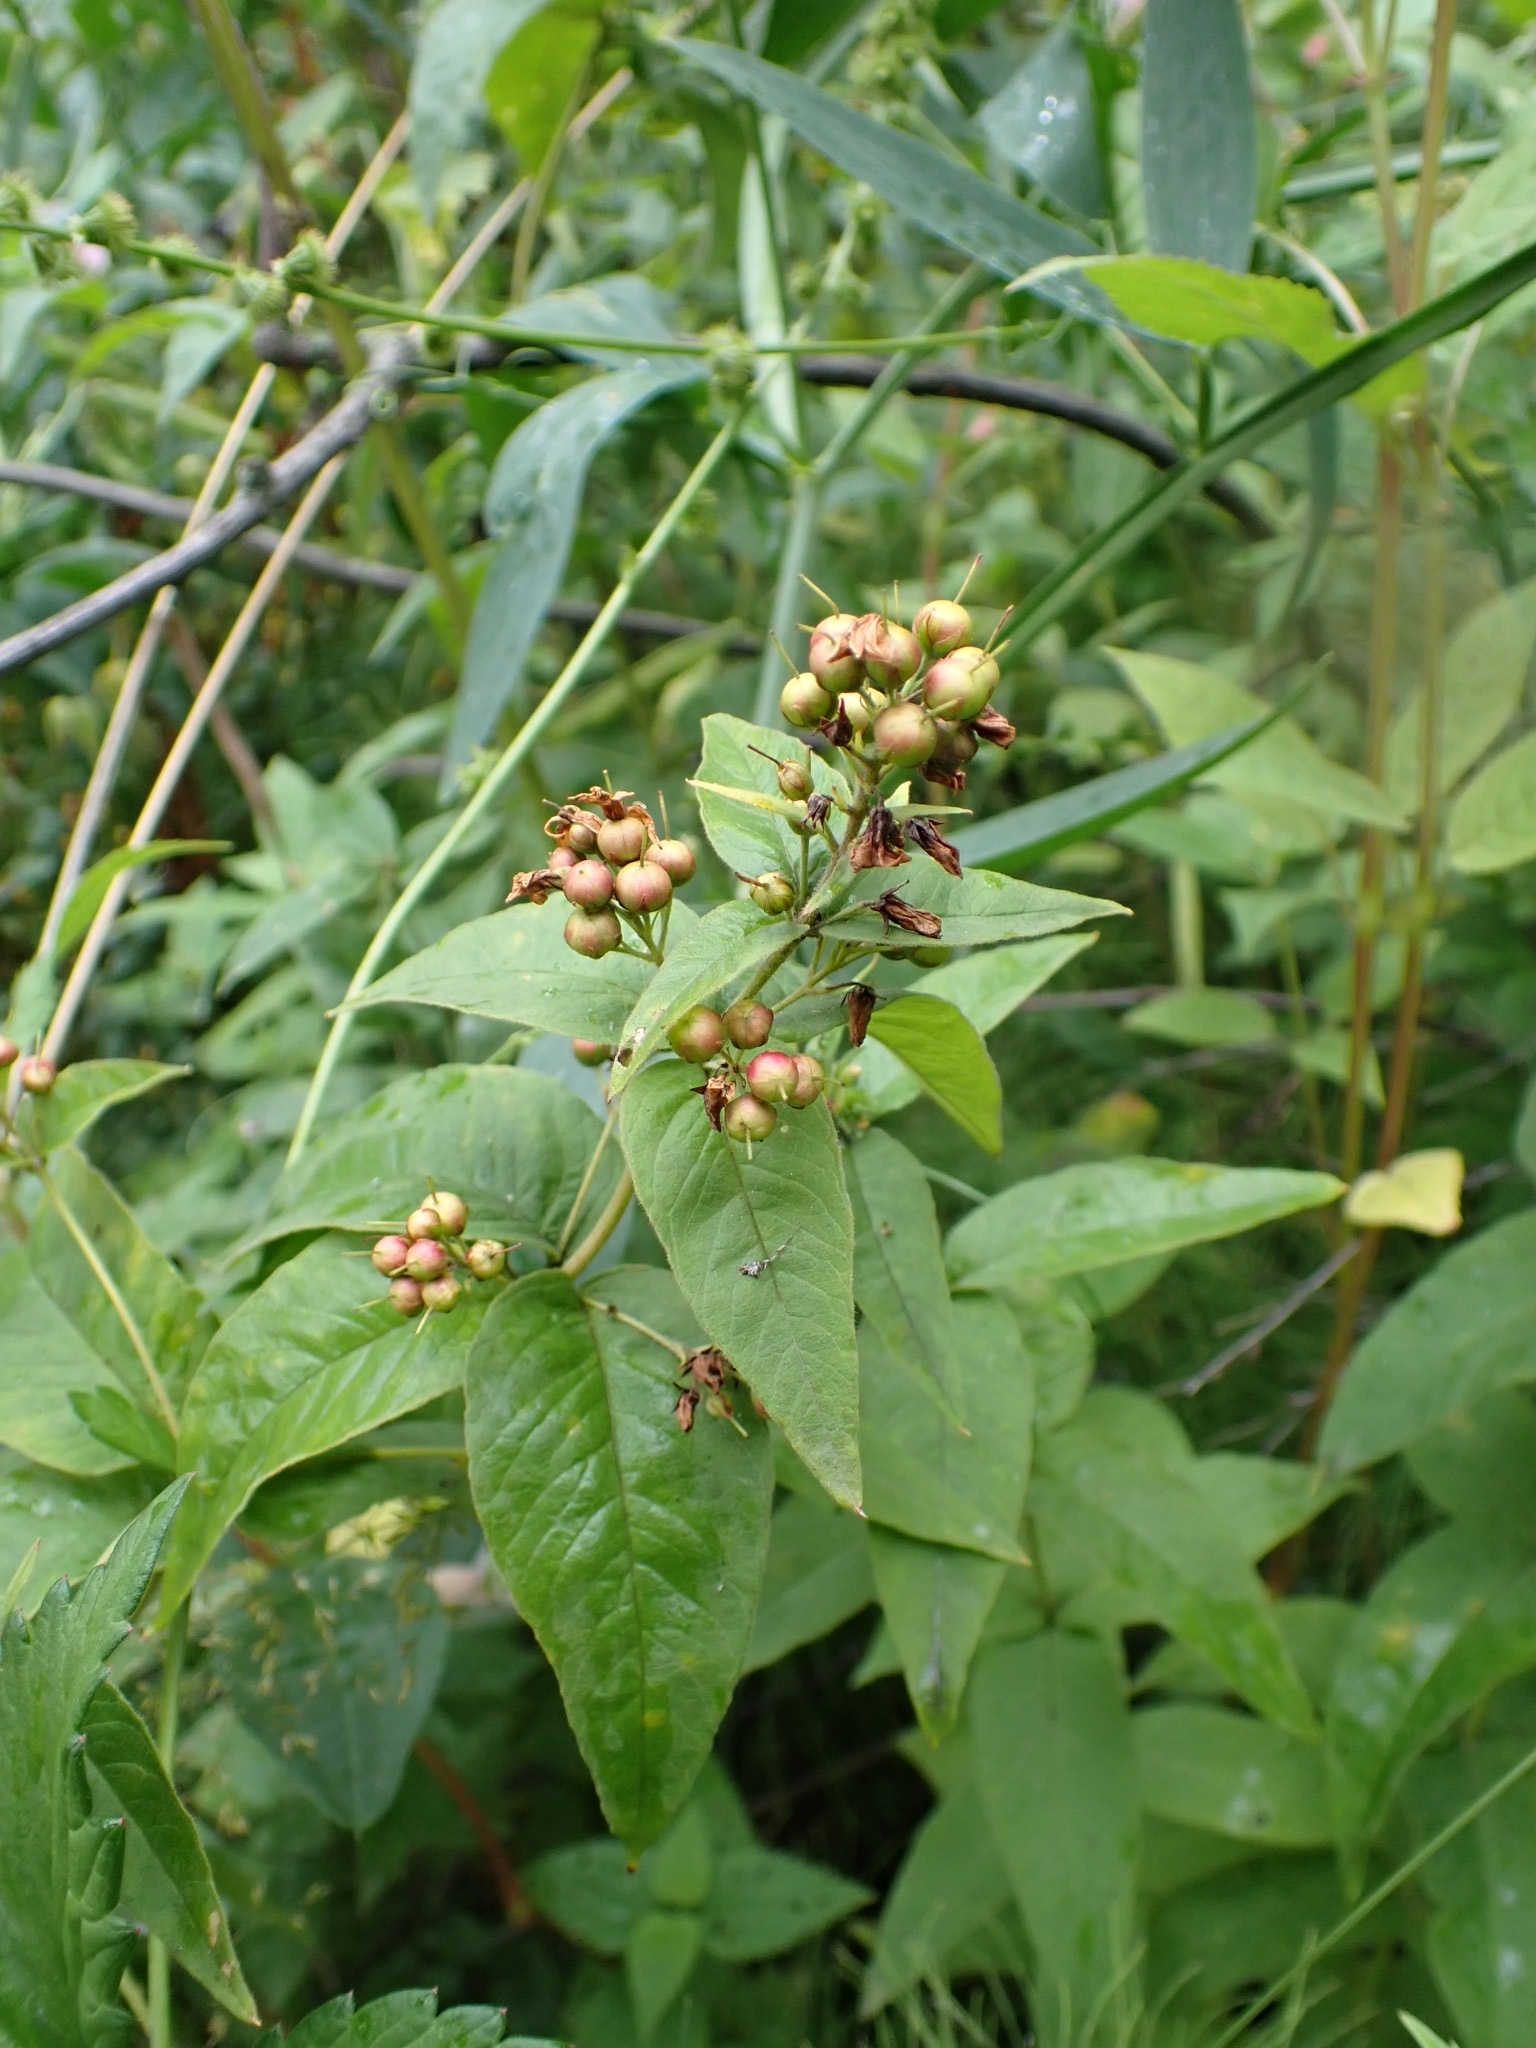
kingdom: Plantae
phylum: Tracheophyta
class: Magnoliopsida
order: Ericales
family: Primulaceae
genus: Lysimachia
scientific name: Lysimachia vulgaris
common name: Yellow loosestrife
